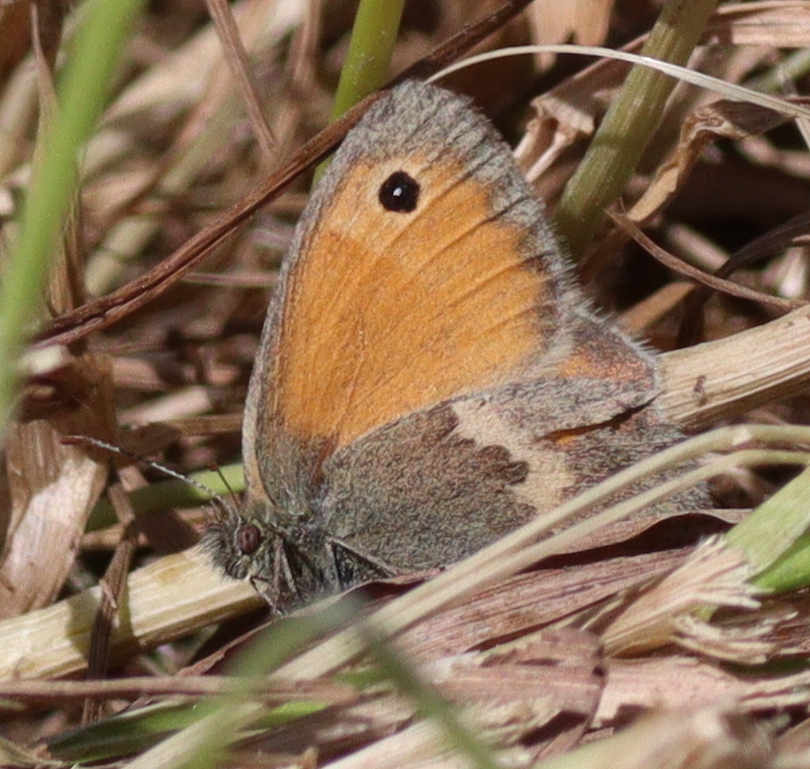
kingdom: Animalia
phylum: Arthropoda
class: Insecta
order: Lepidoptera
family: Nymphalidae
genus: Coenonympha
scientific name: Coenonympha pamphilus
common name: Small heath
